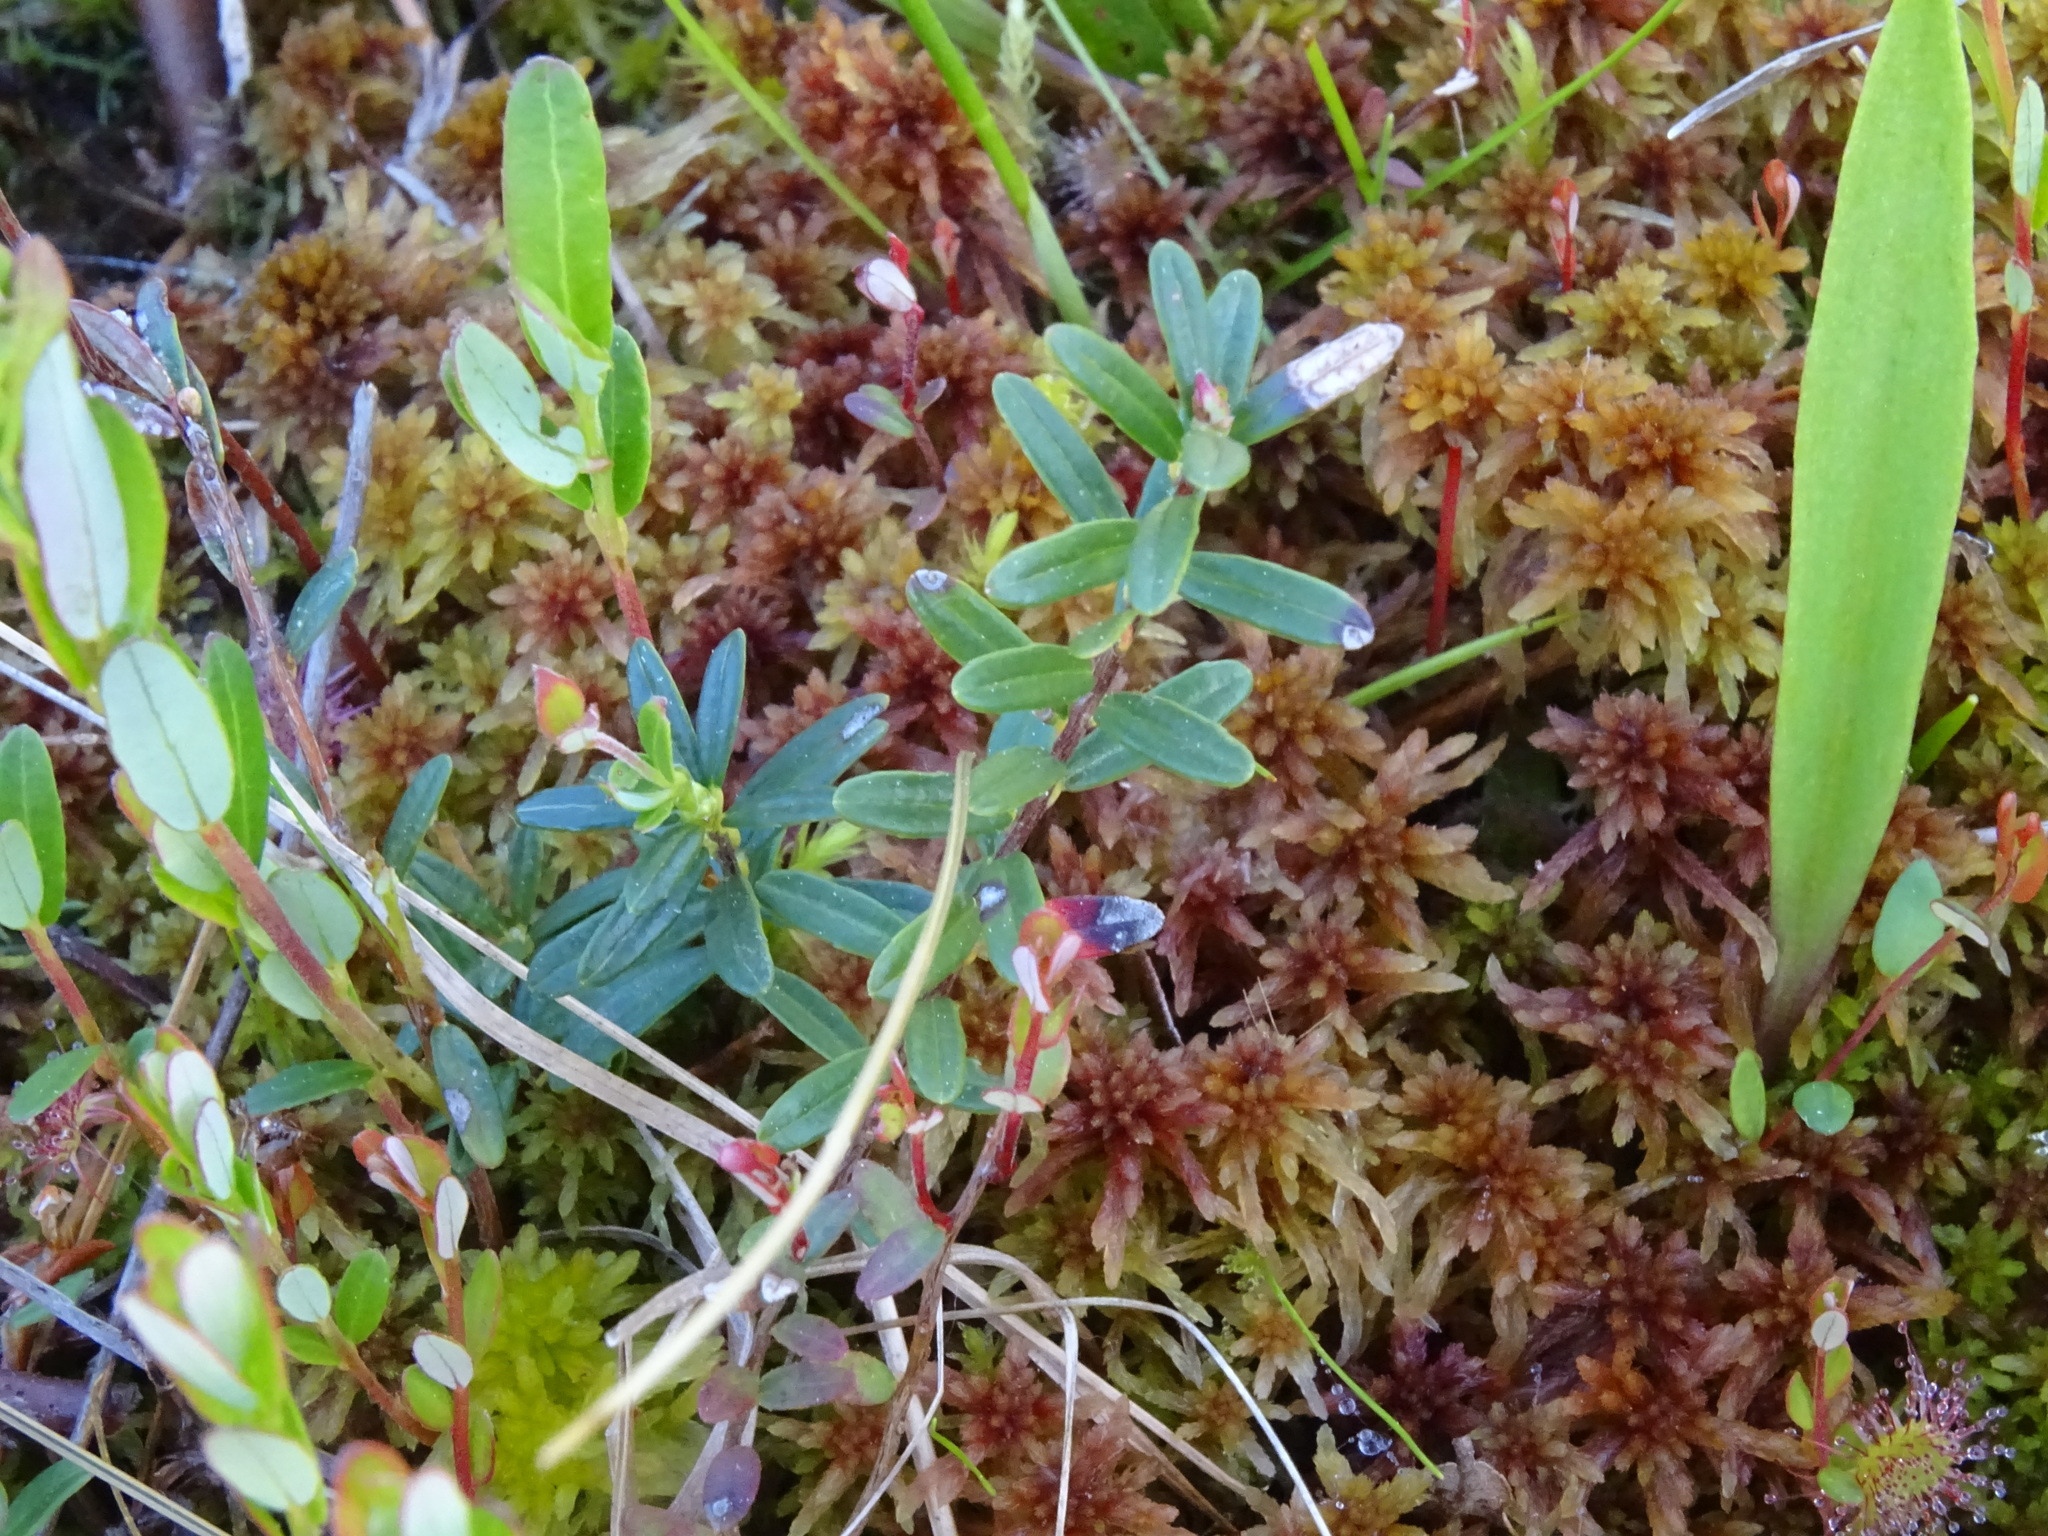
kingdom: Plantae
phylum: Tracheophyta
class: Magnoliopsida
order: Ericales
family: Ericaceae
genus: Vaccinium
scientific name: Vaccinium macrocarpon
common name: American cranberry
